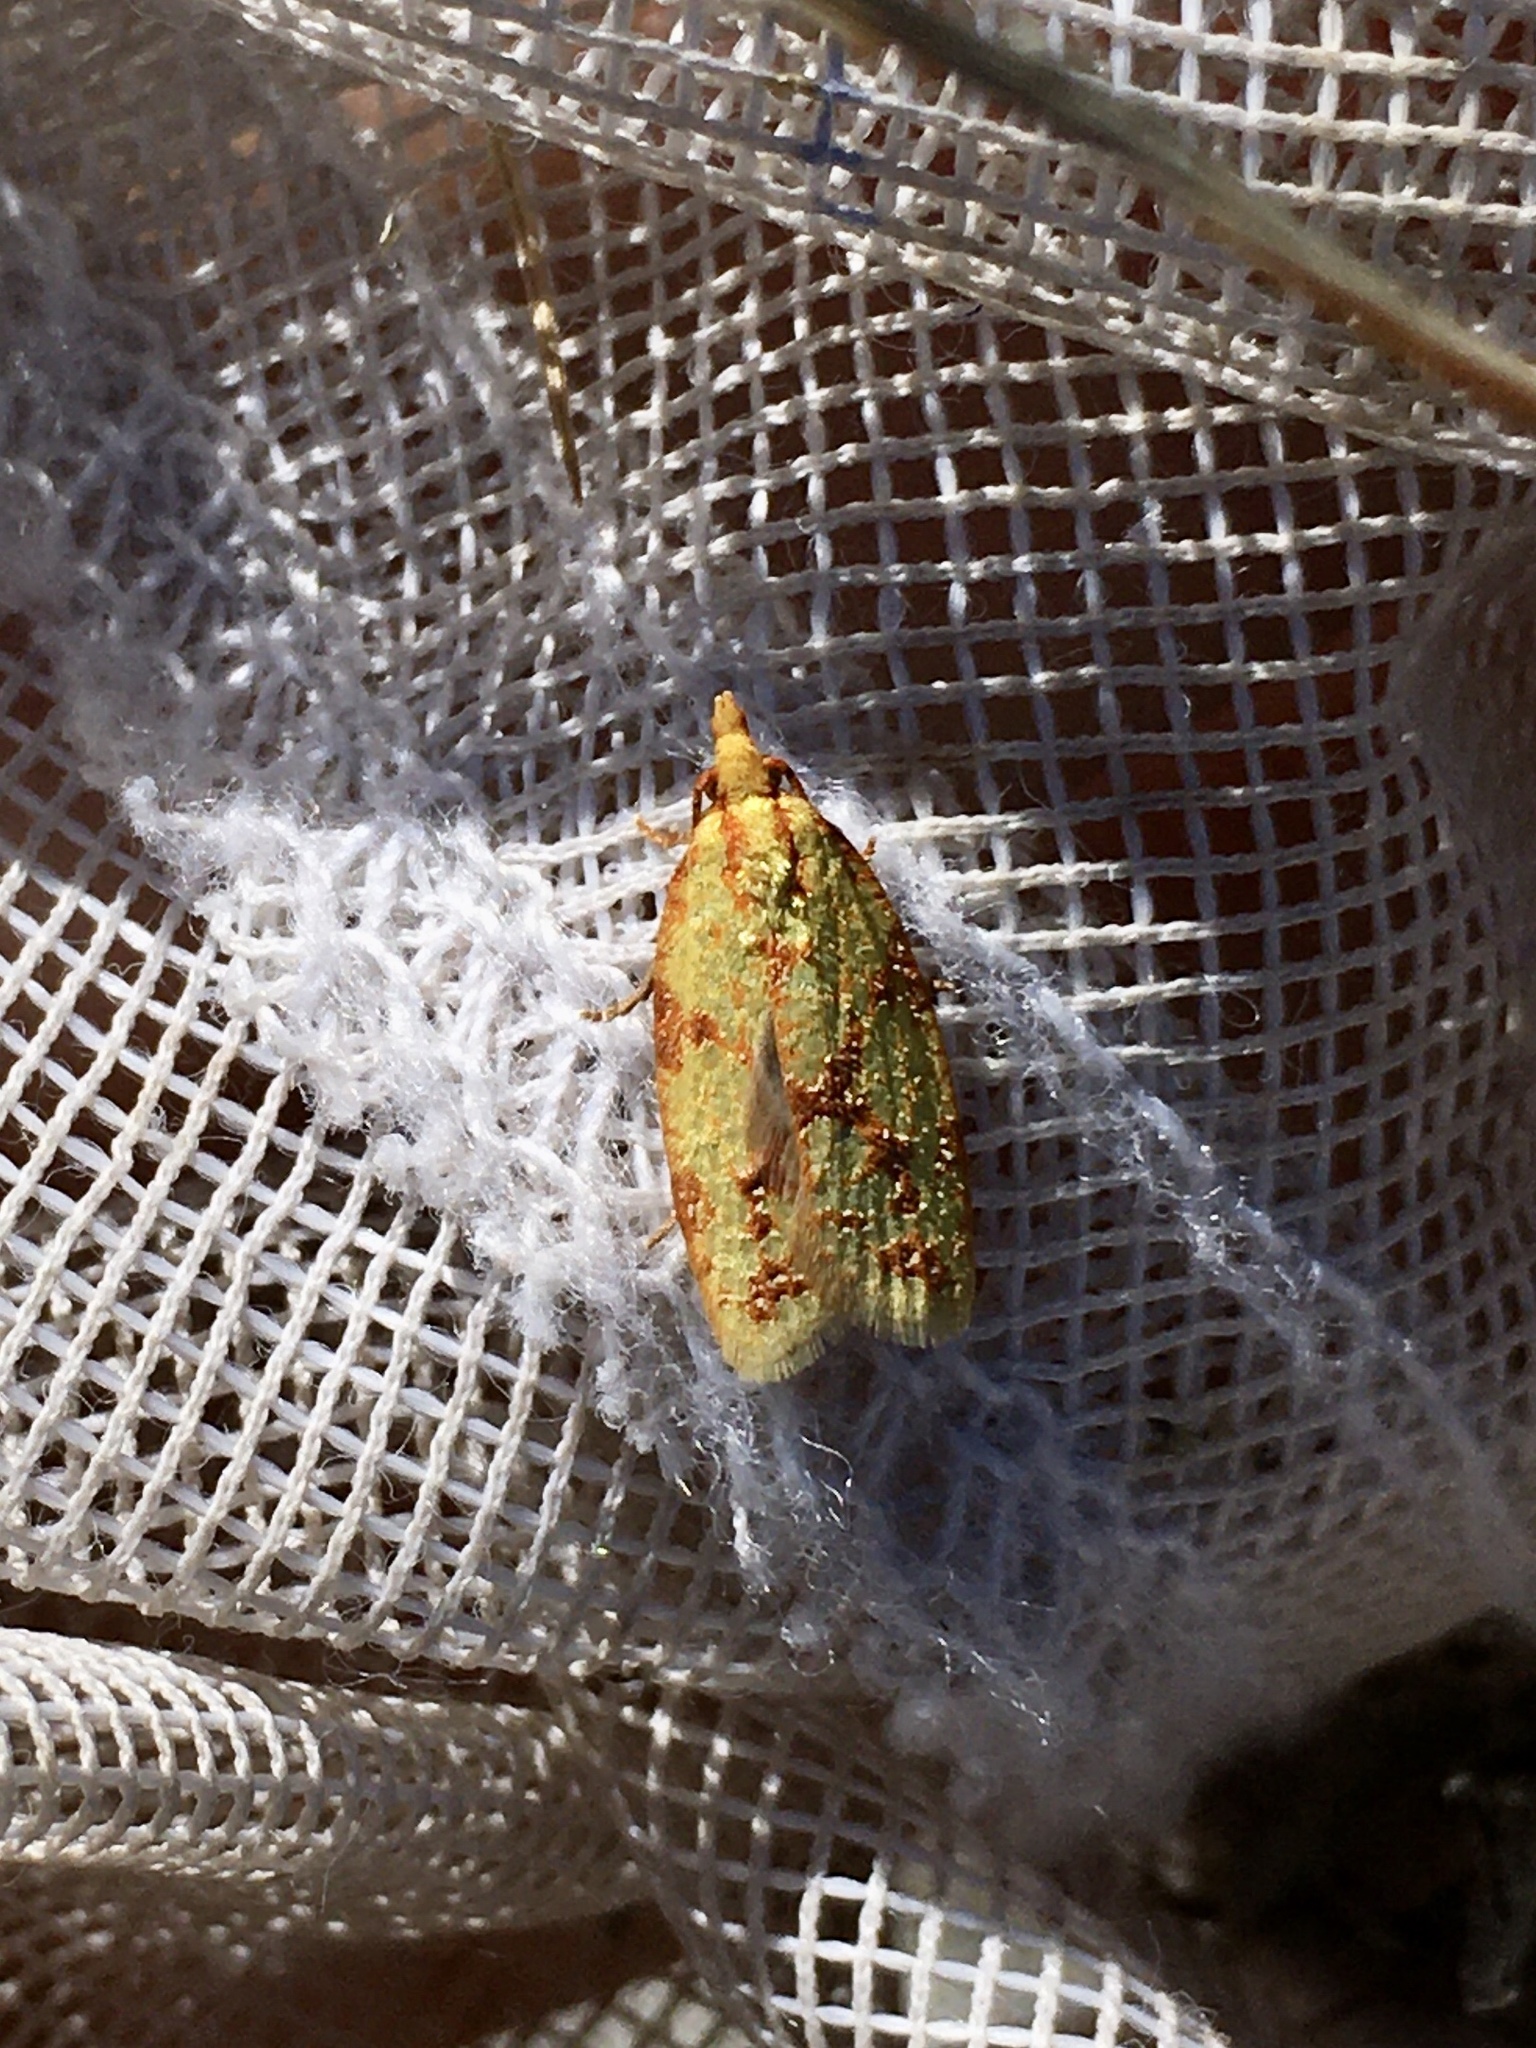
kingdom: Animalia
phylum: Arthropoda
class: Insecta
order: Lepidoptera
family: Tortricidae
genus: Sparganothis
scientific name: Sparganothis sulfureana
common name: Sparganothis fruitworm moth
